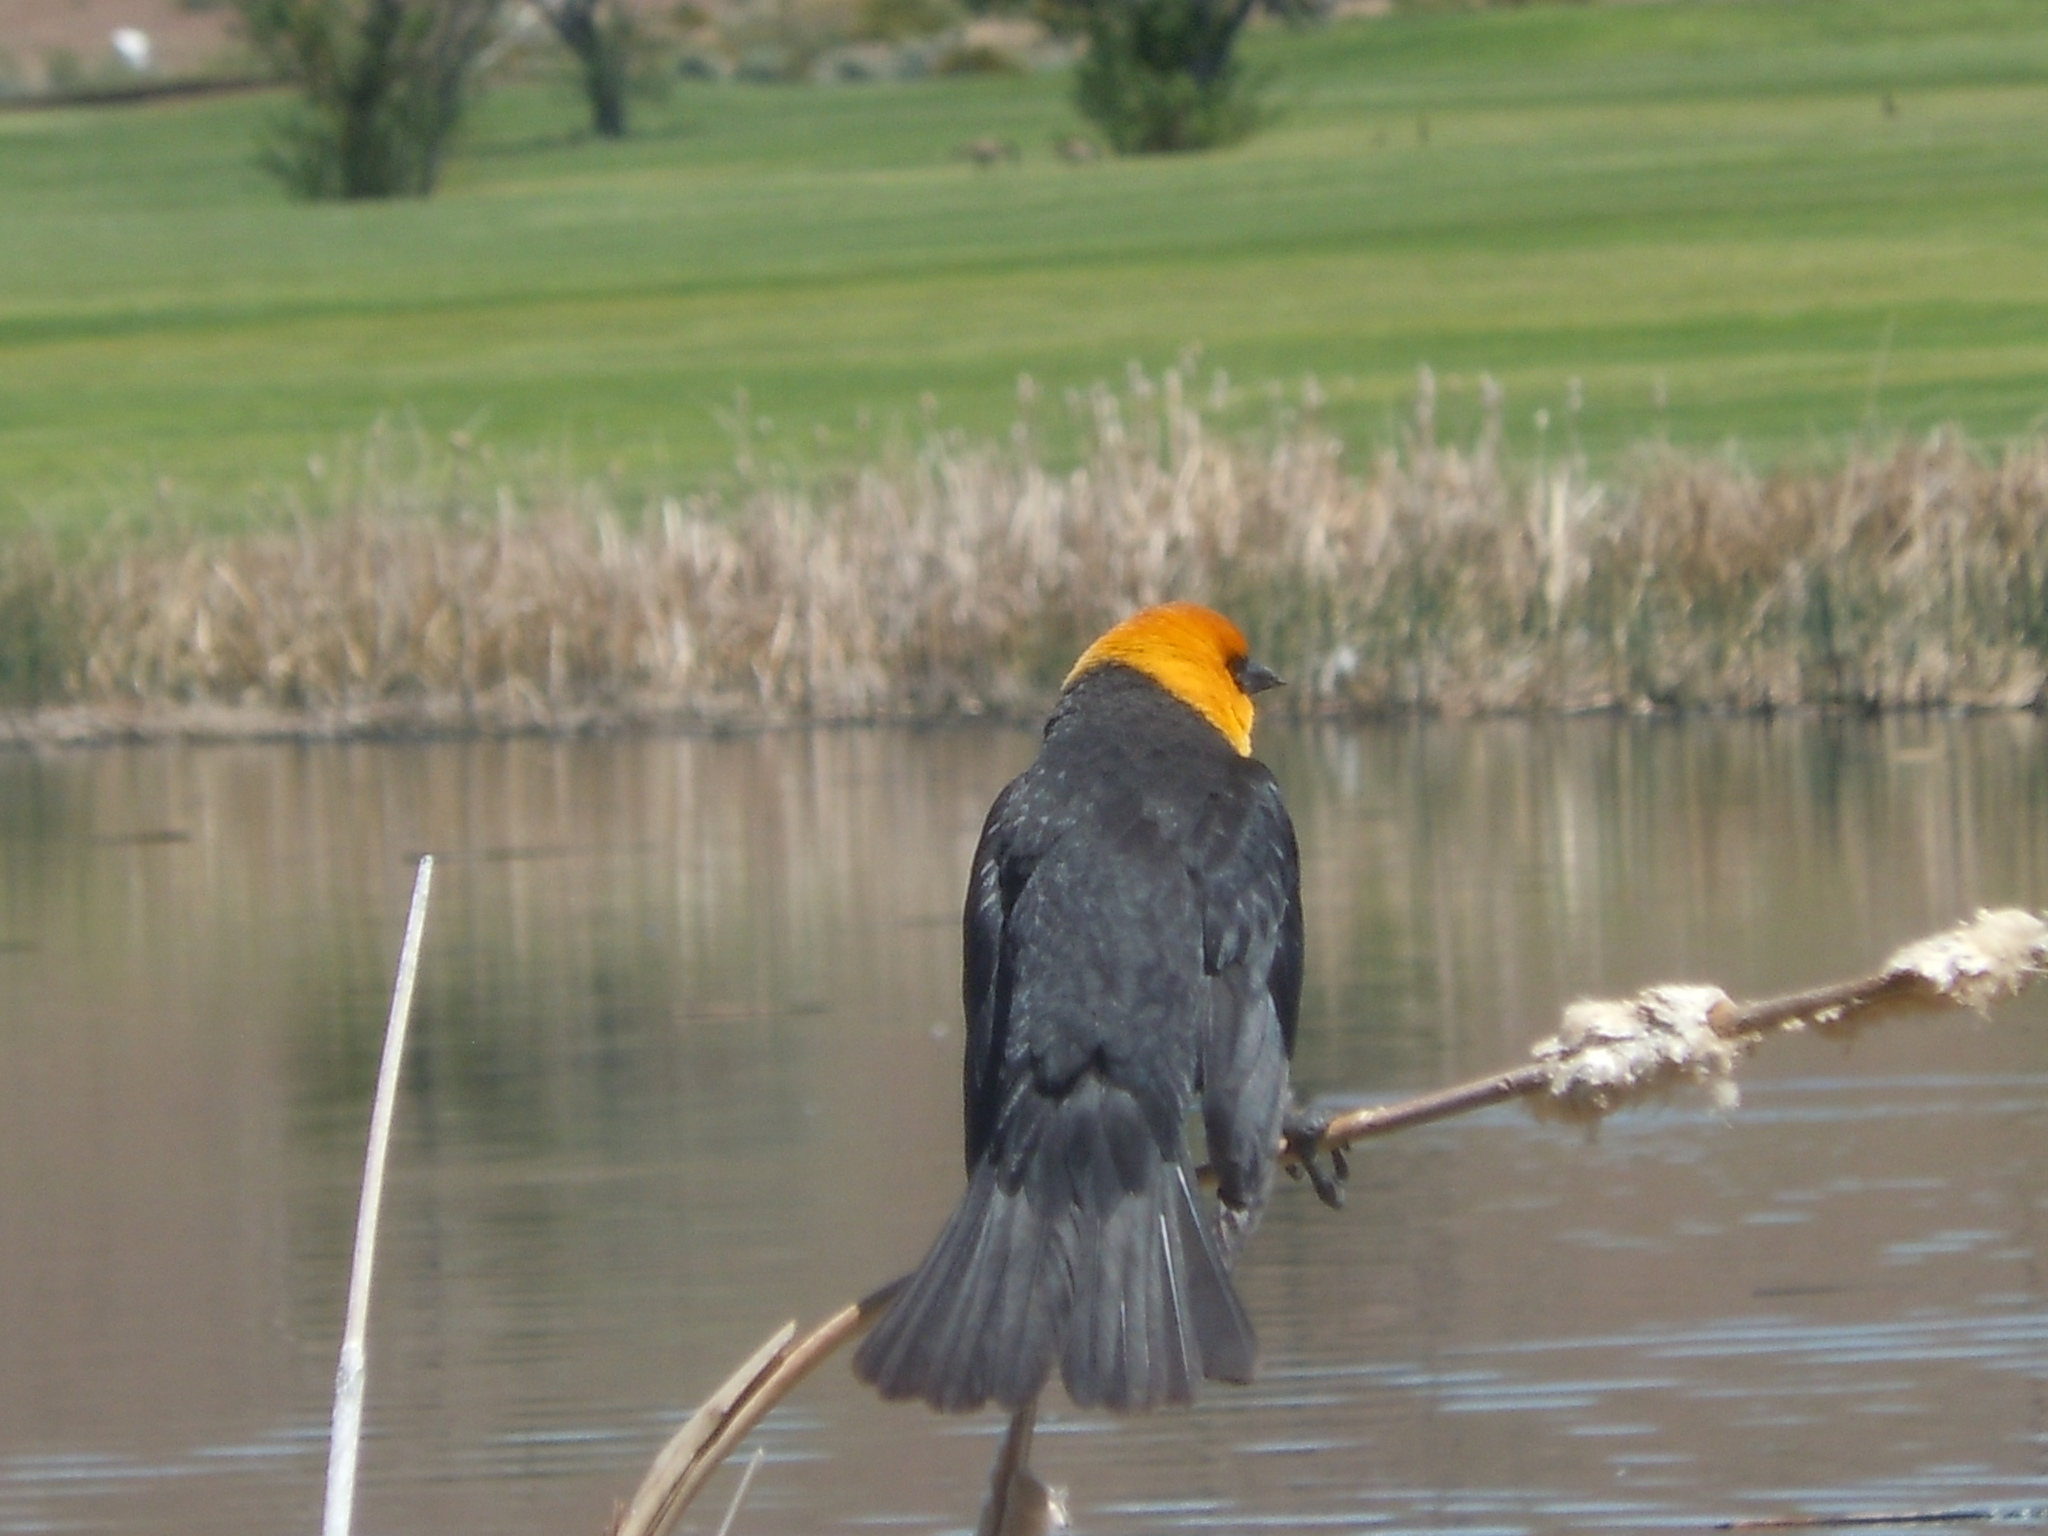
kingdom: Animalia
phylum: Chordata
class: Aves
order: Passeriformes
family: Icteridae
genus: Xanthocephalus
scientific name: Xanthocephalus xanthocephalus
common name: Yellow-headed blackbird
